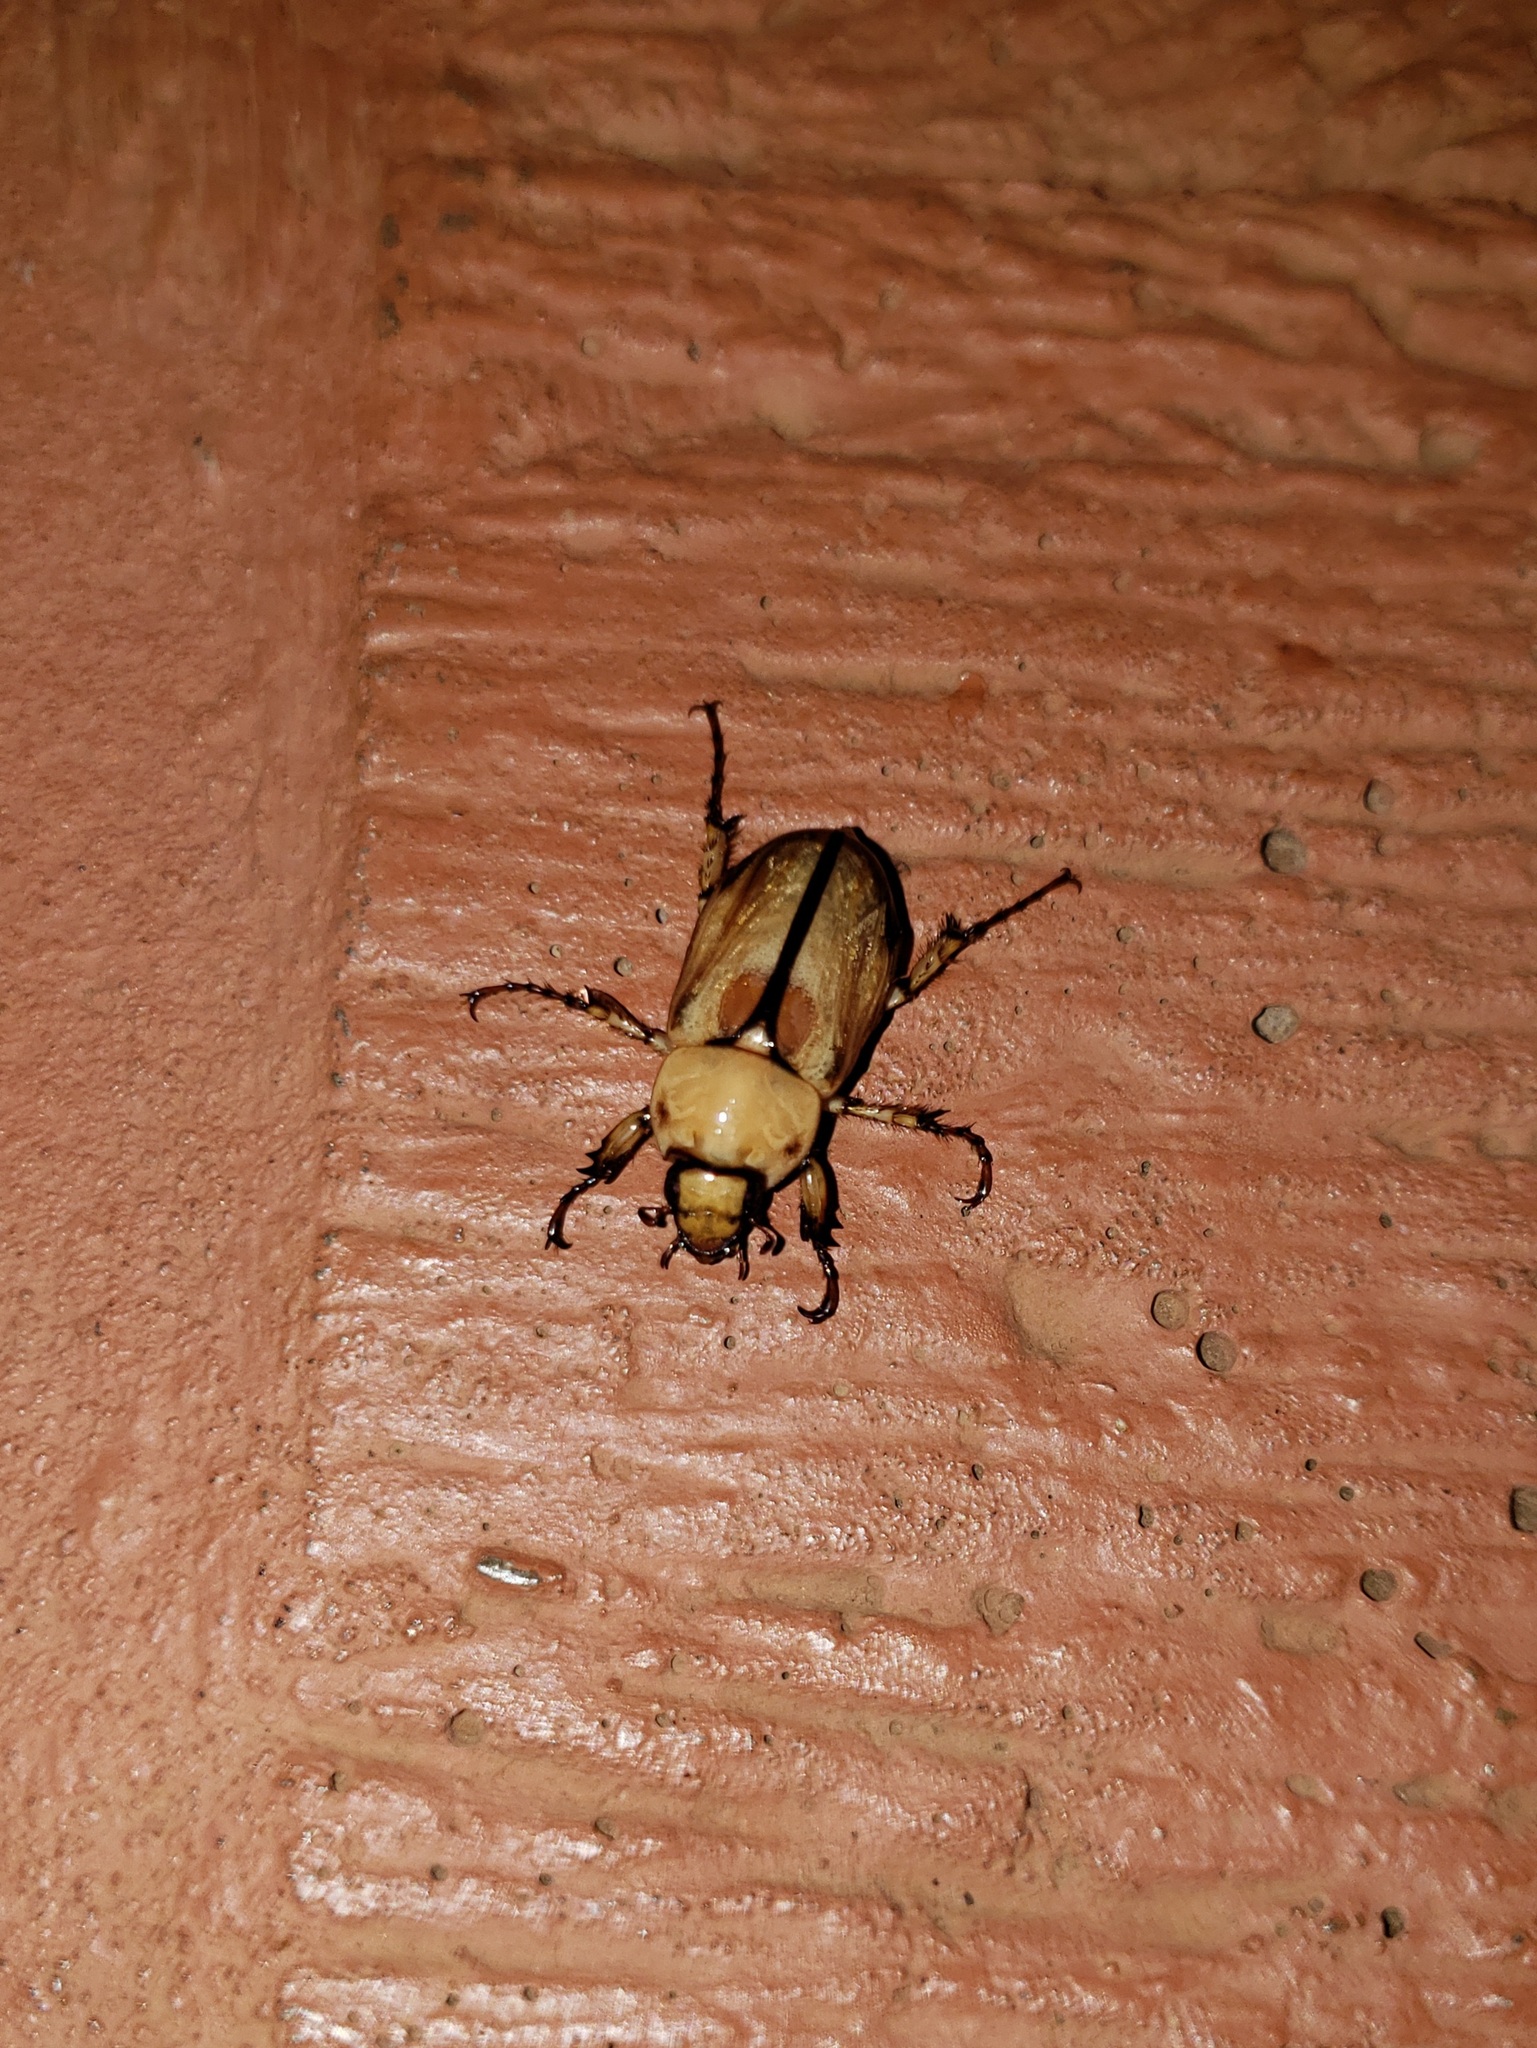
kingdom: Animalia
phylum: Arthropoda
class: Insecta
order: Coleoptera
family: Scarabaeidae
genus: Cyclocephala
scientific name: Cyclocephala suturalis
